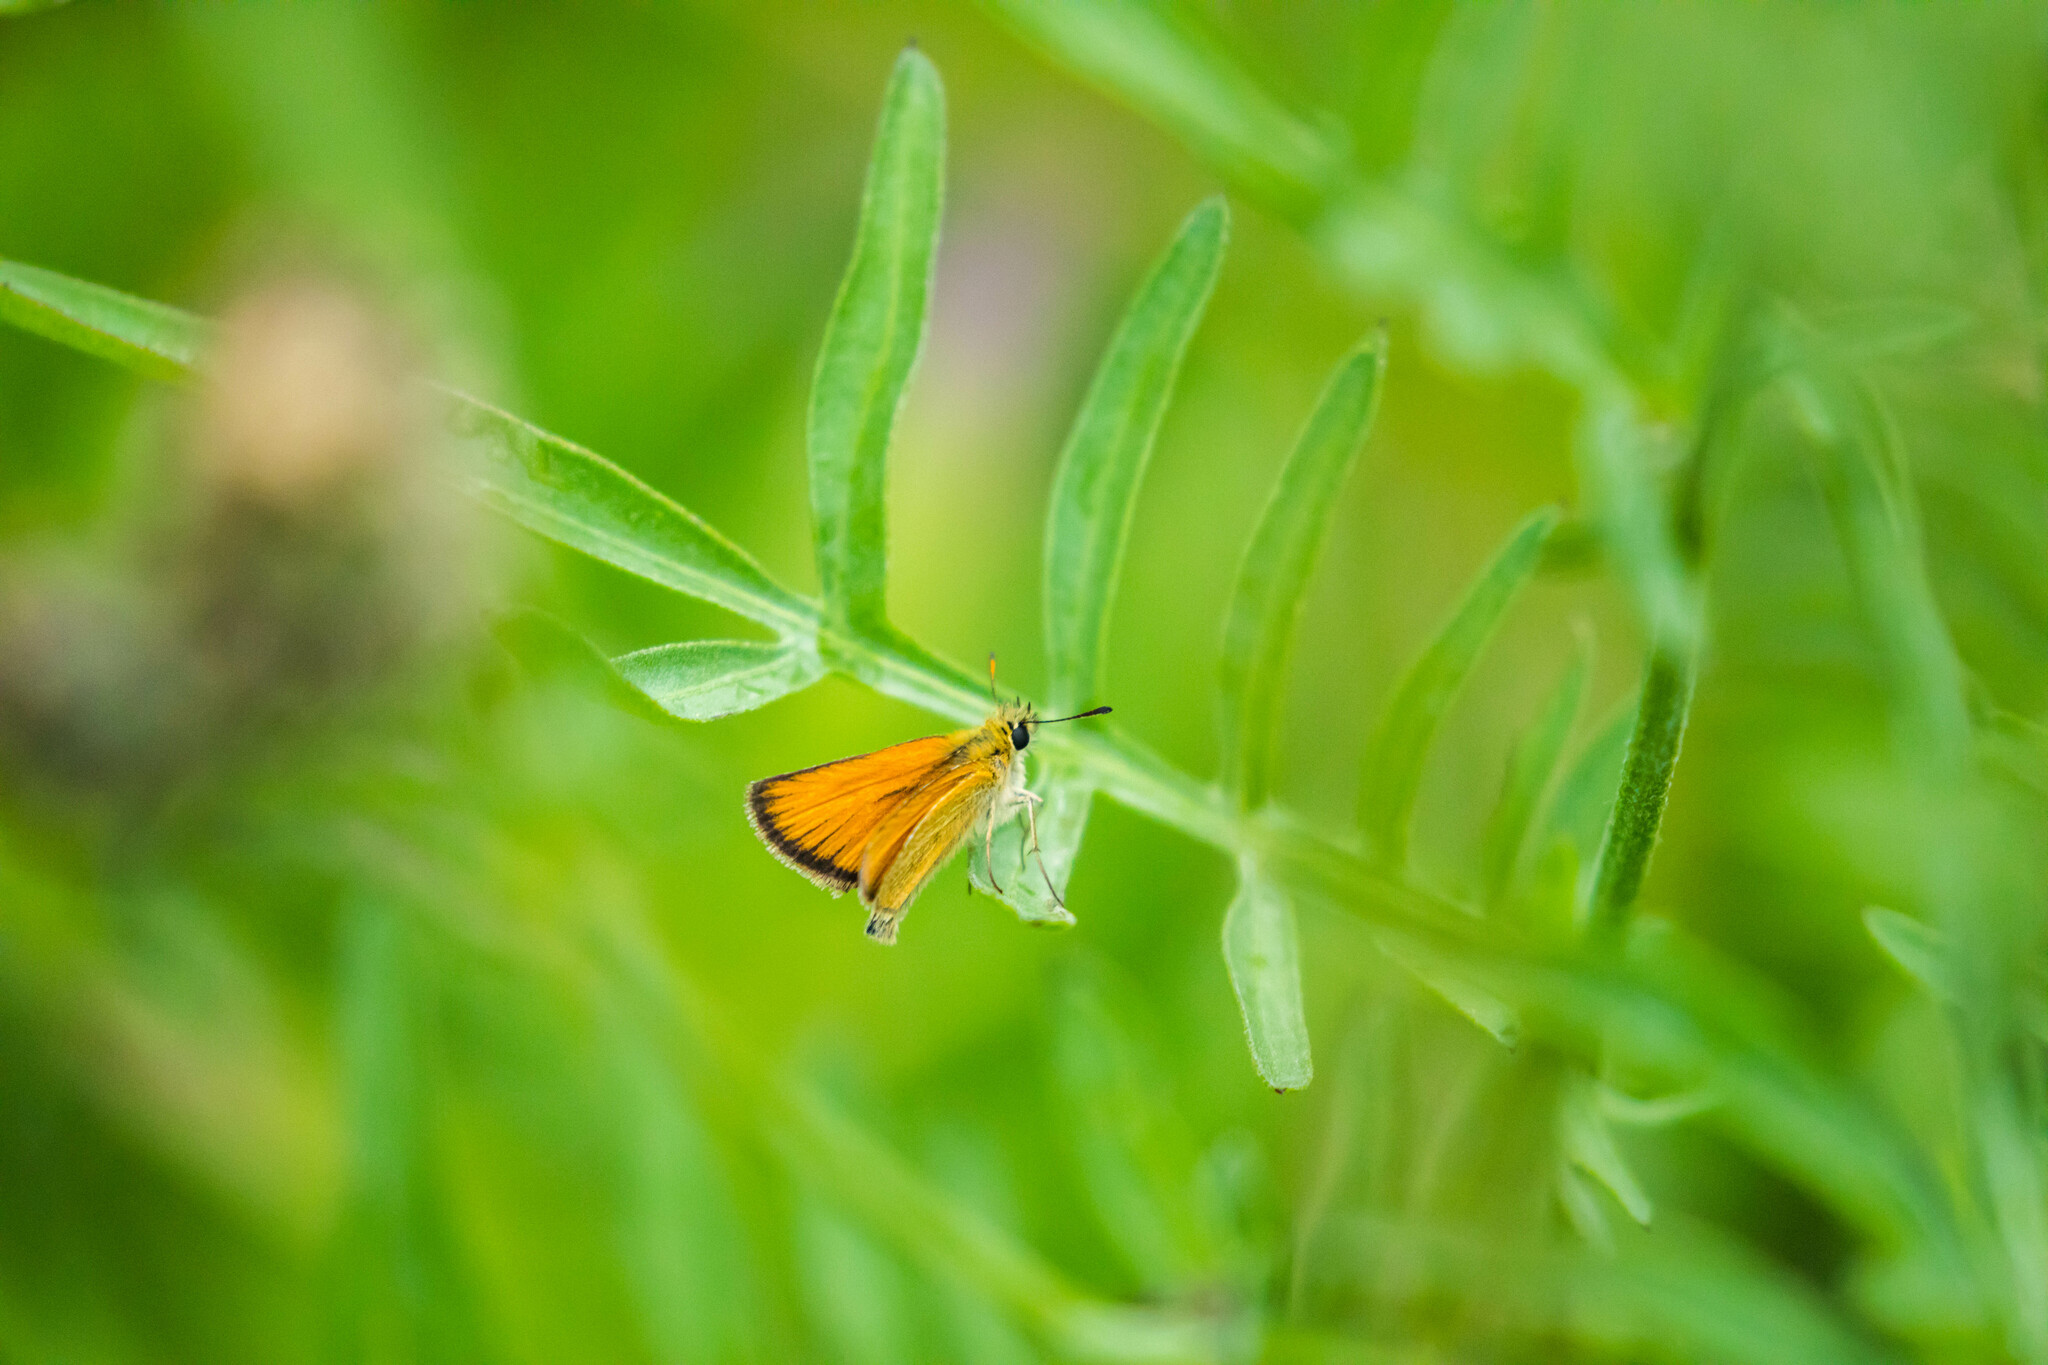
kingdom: Animalia
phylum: Arthropoda
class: Insecta
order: Lepidoptera
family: Hesperiidae
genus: Thymelicus
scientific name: Thymelicus lineola
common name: Essex skipper
